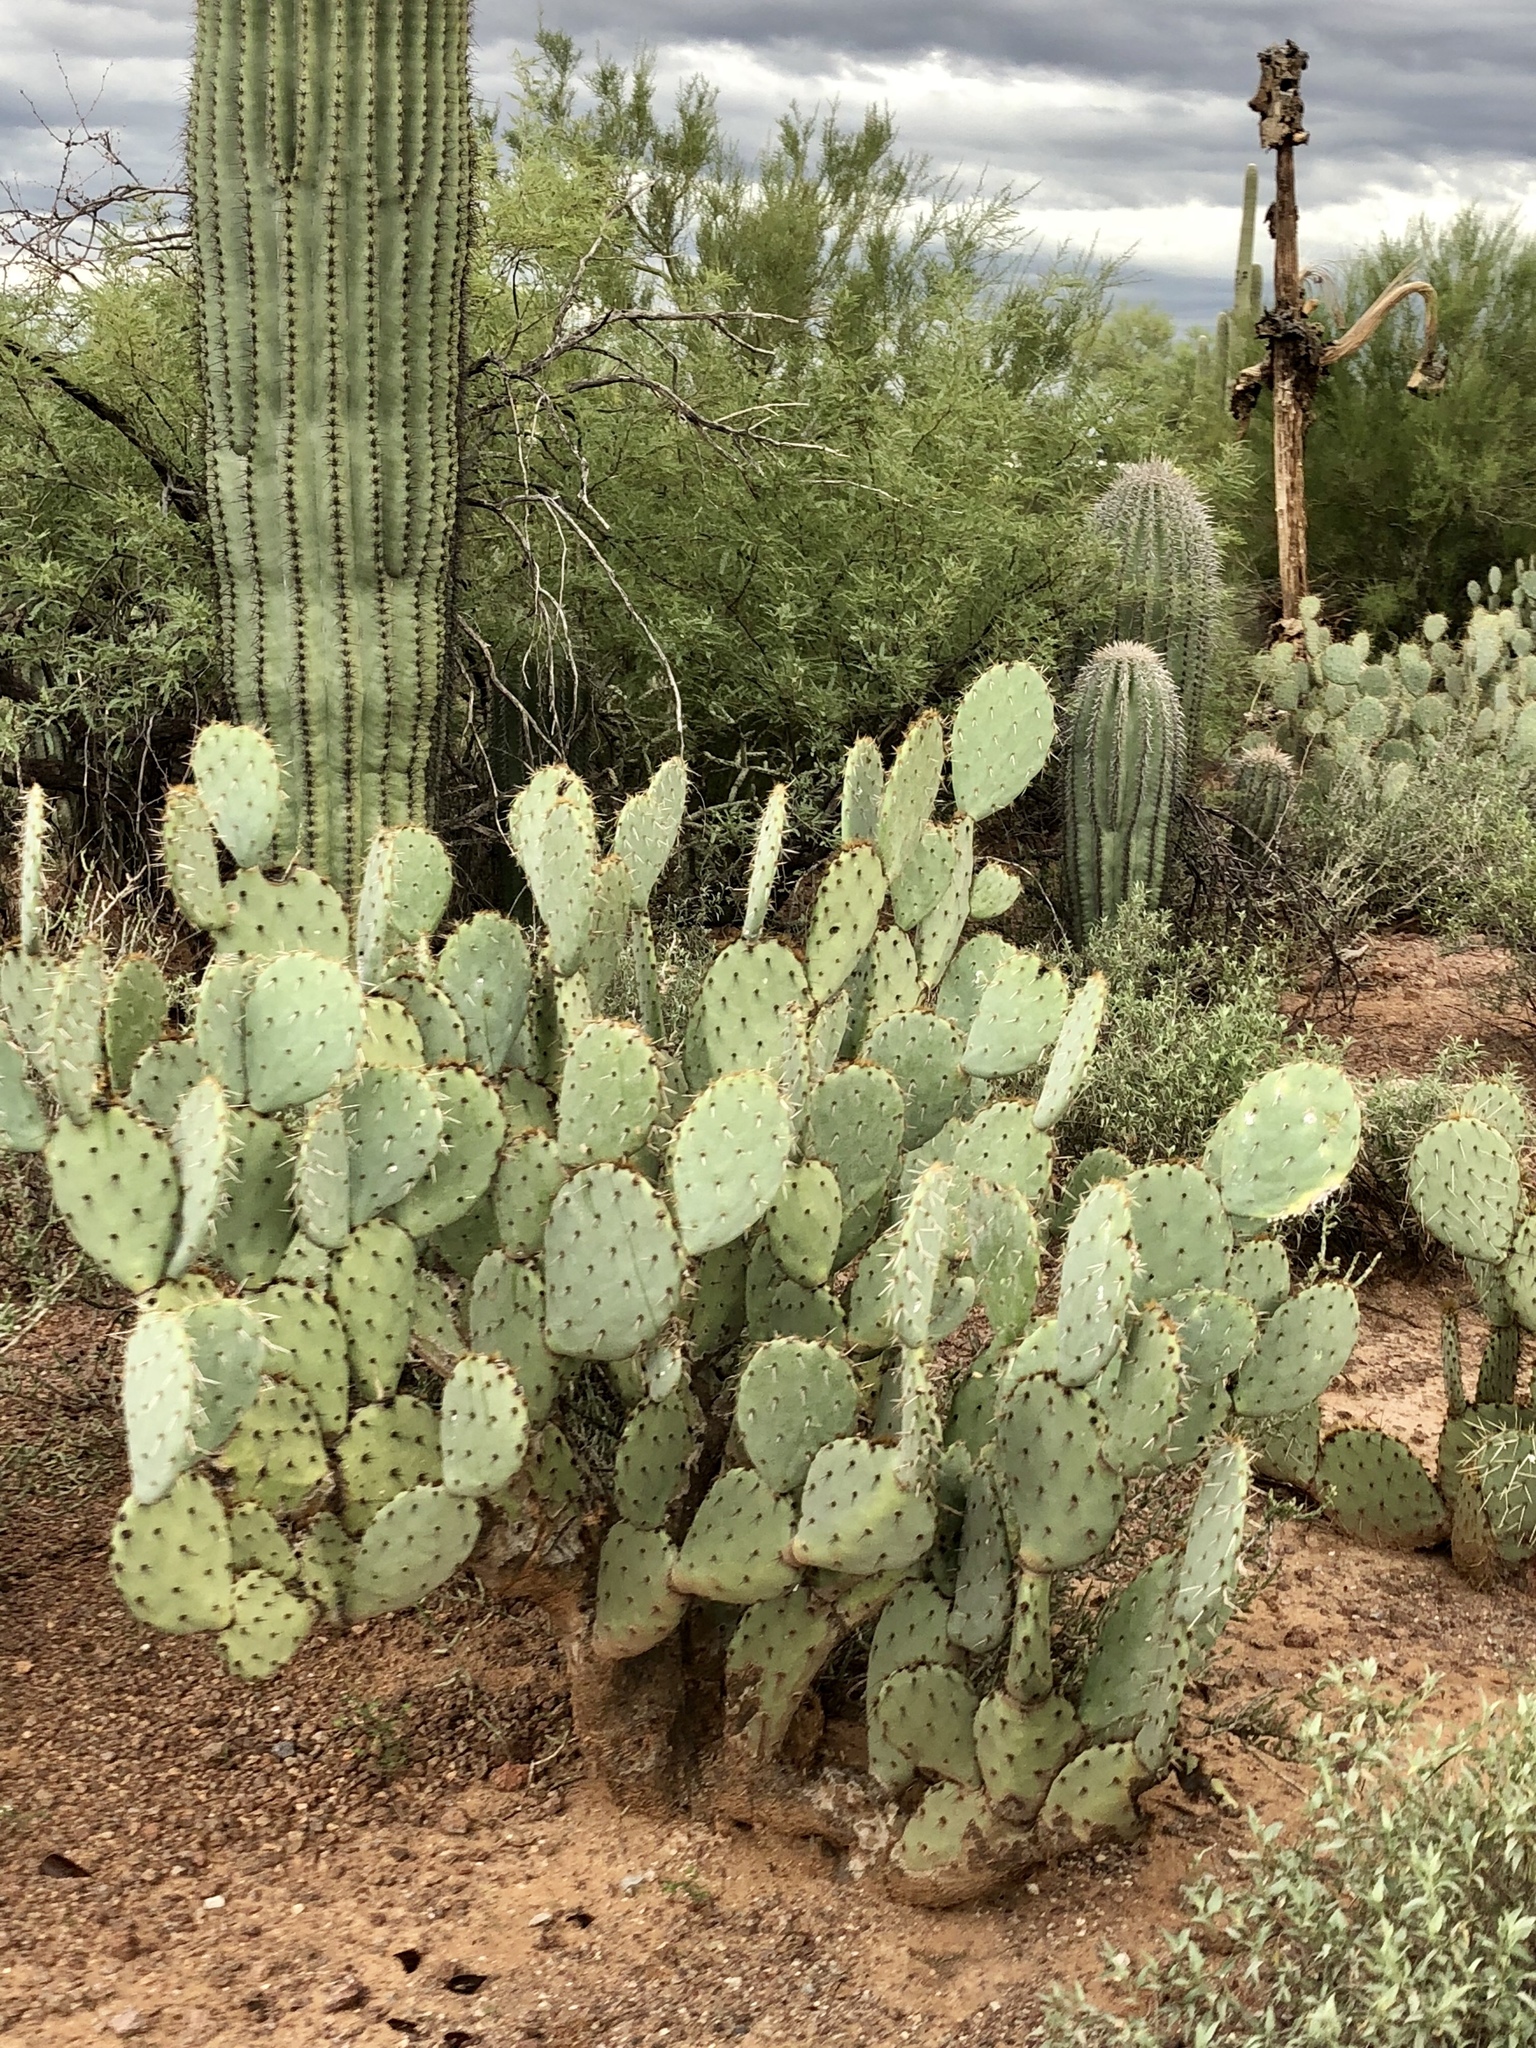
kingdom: Plantae
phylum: Tracheophyta
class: Magnoliopsida
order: Caryophyllales
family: Cactaceae
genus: Opuntia
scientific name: Opuntia engelmannii
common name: Cactus-apple
